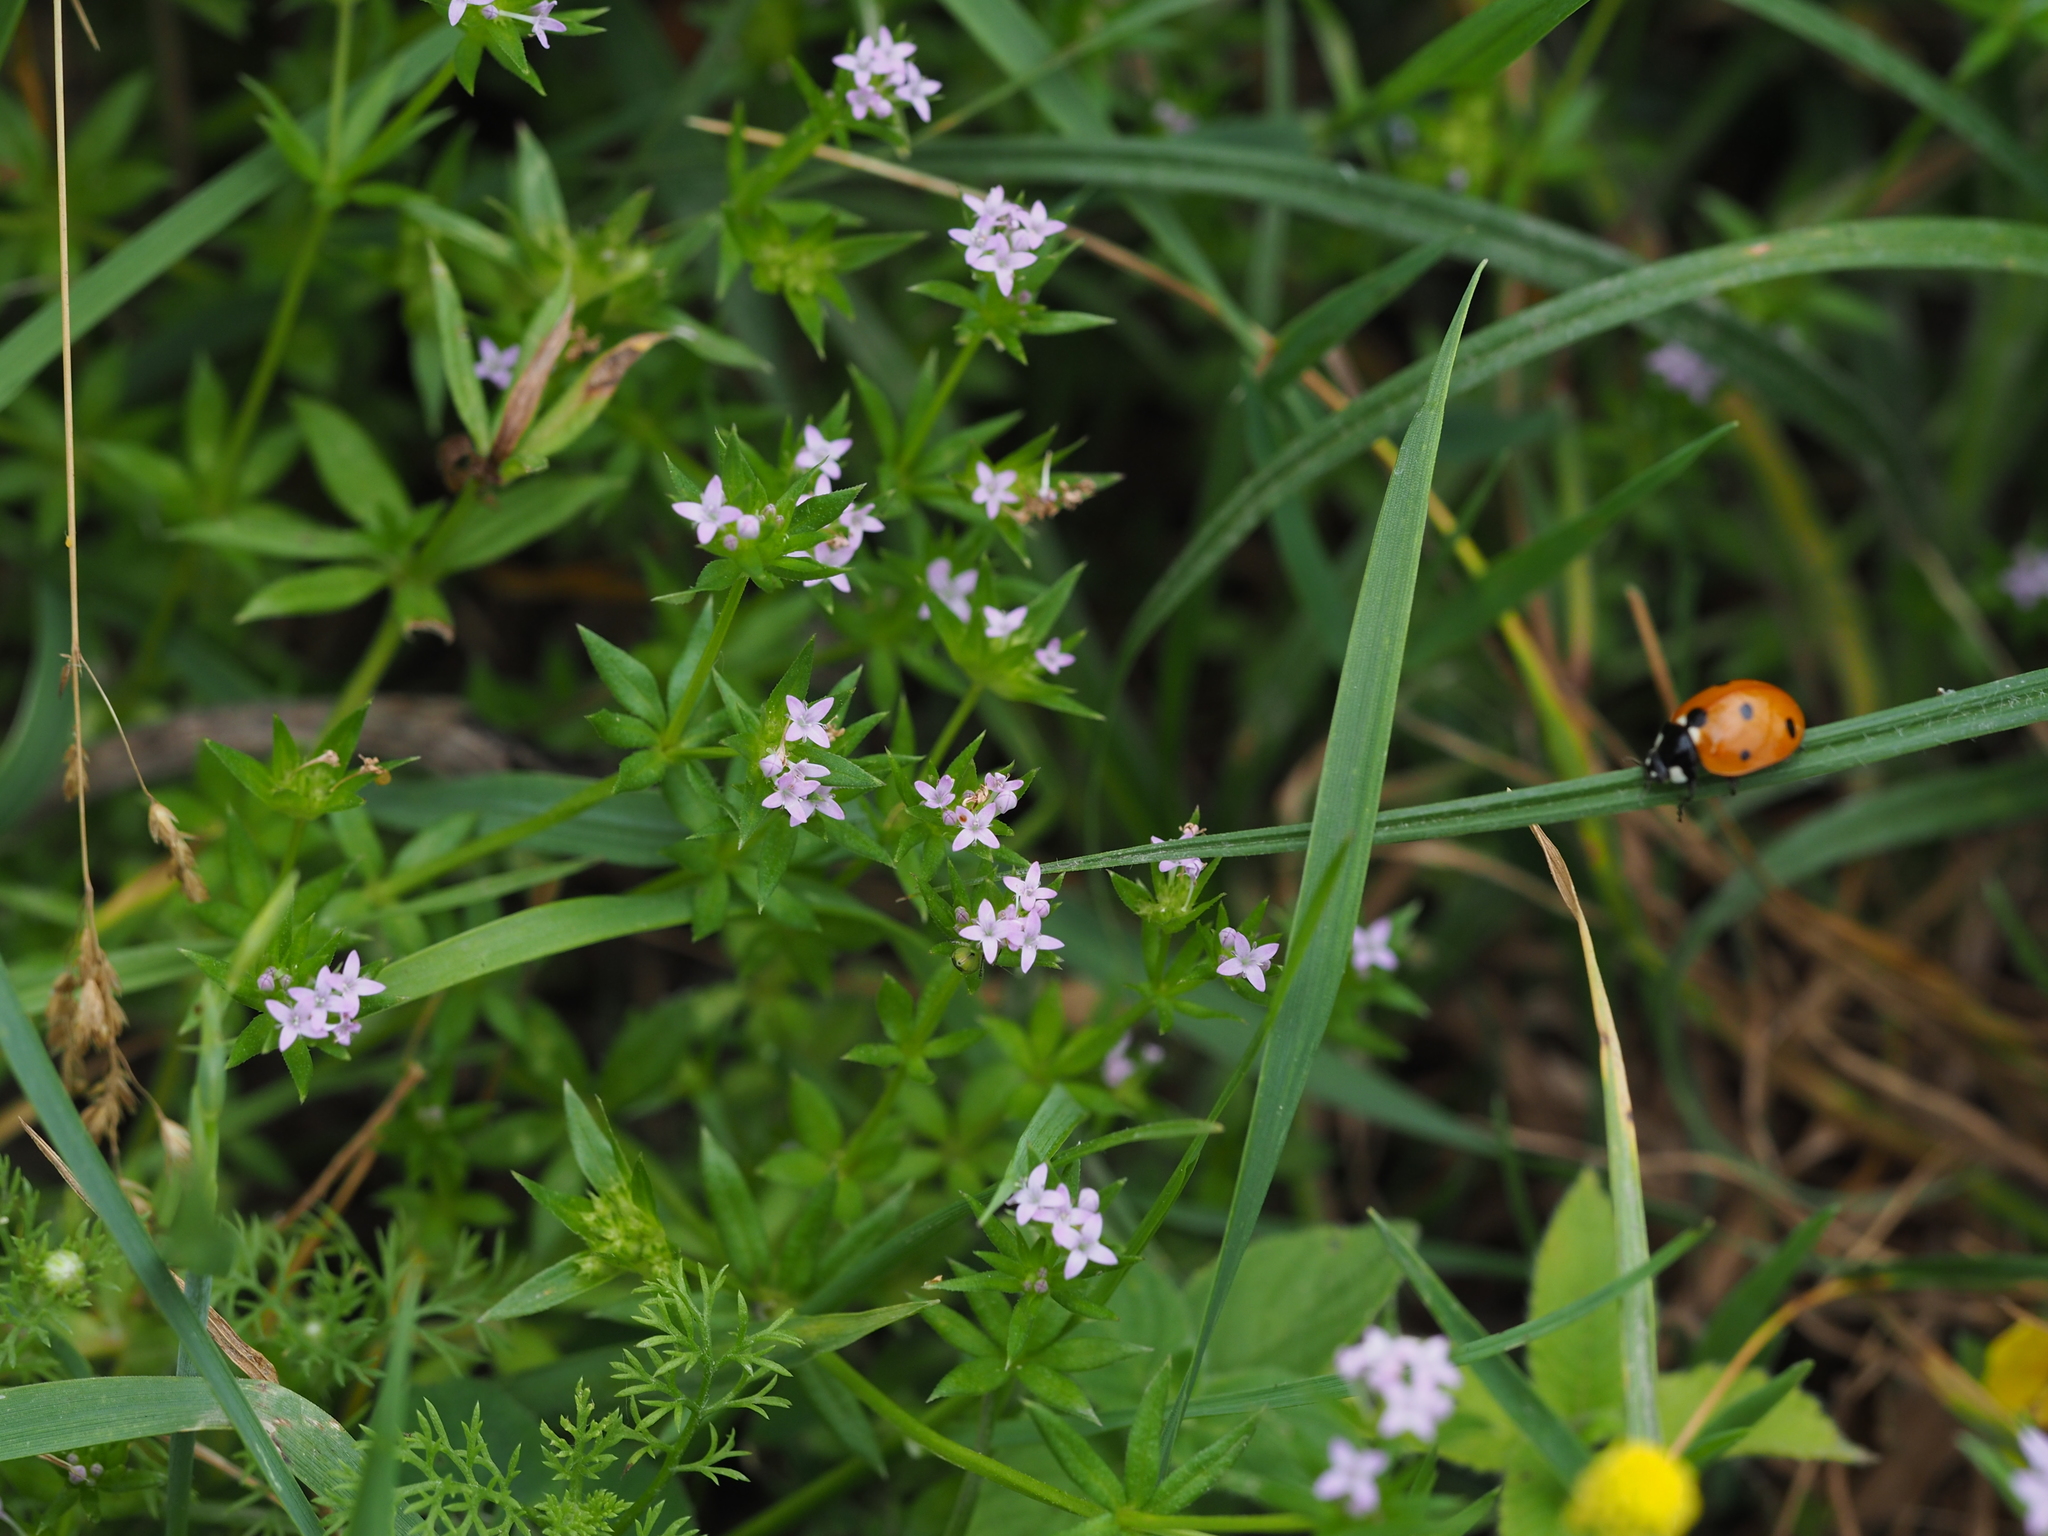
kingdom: Plantae
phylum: Tracheophyta
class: Magnoliopsida
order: Gentianales
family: Rubiaceae
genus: Sherardia
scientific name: Sherardia arvensis
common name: Field madder
